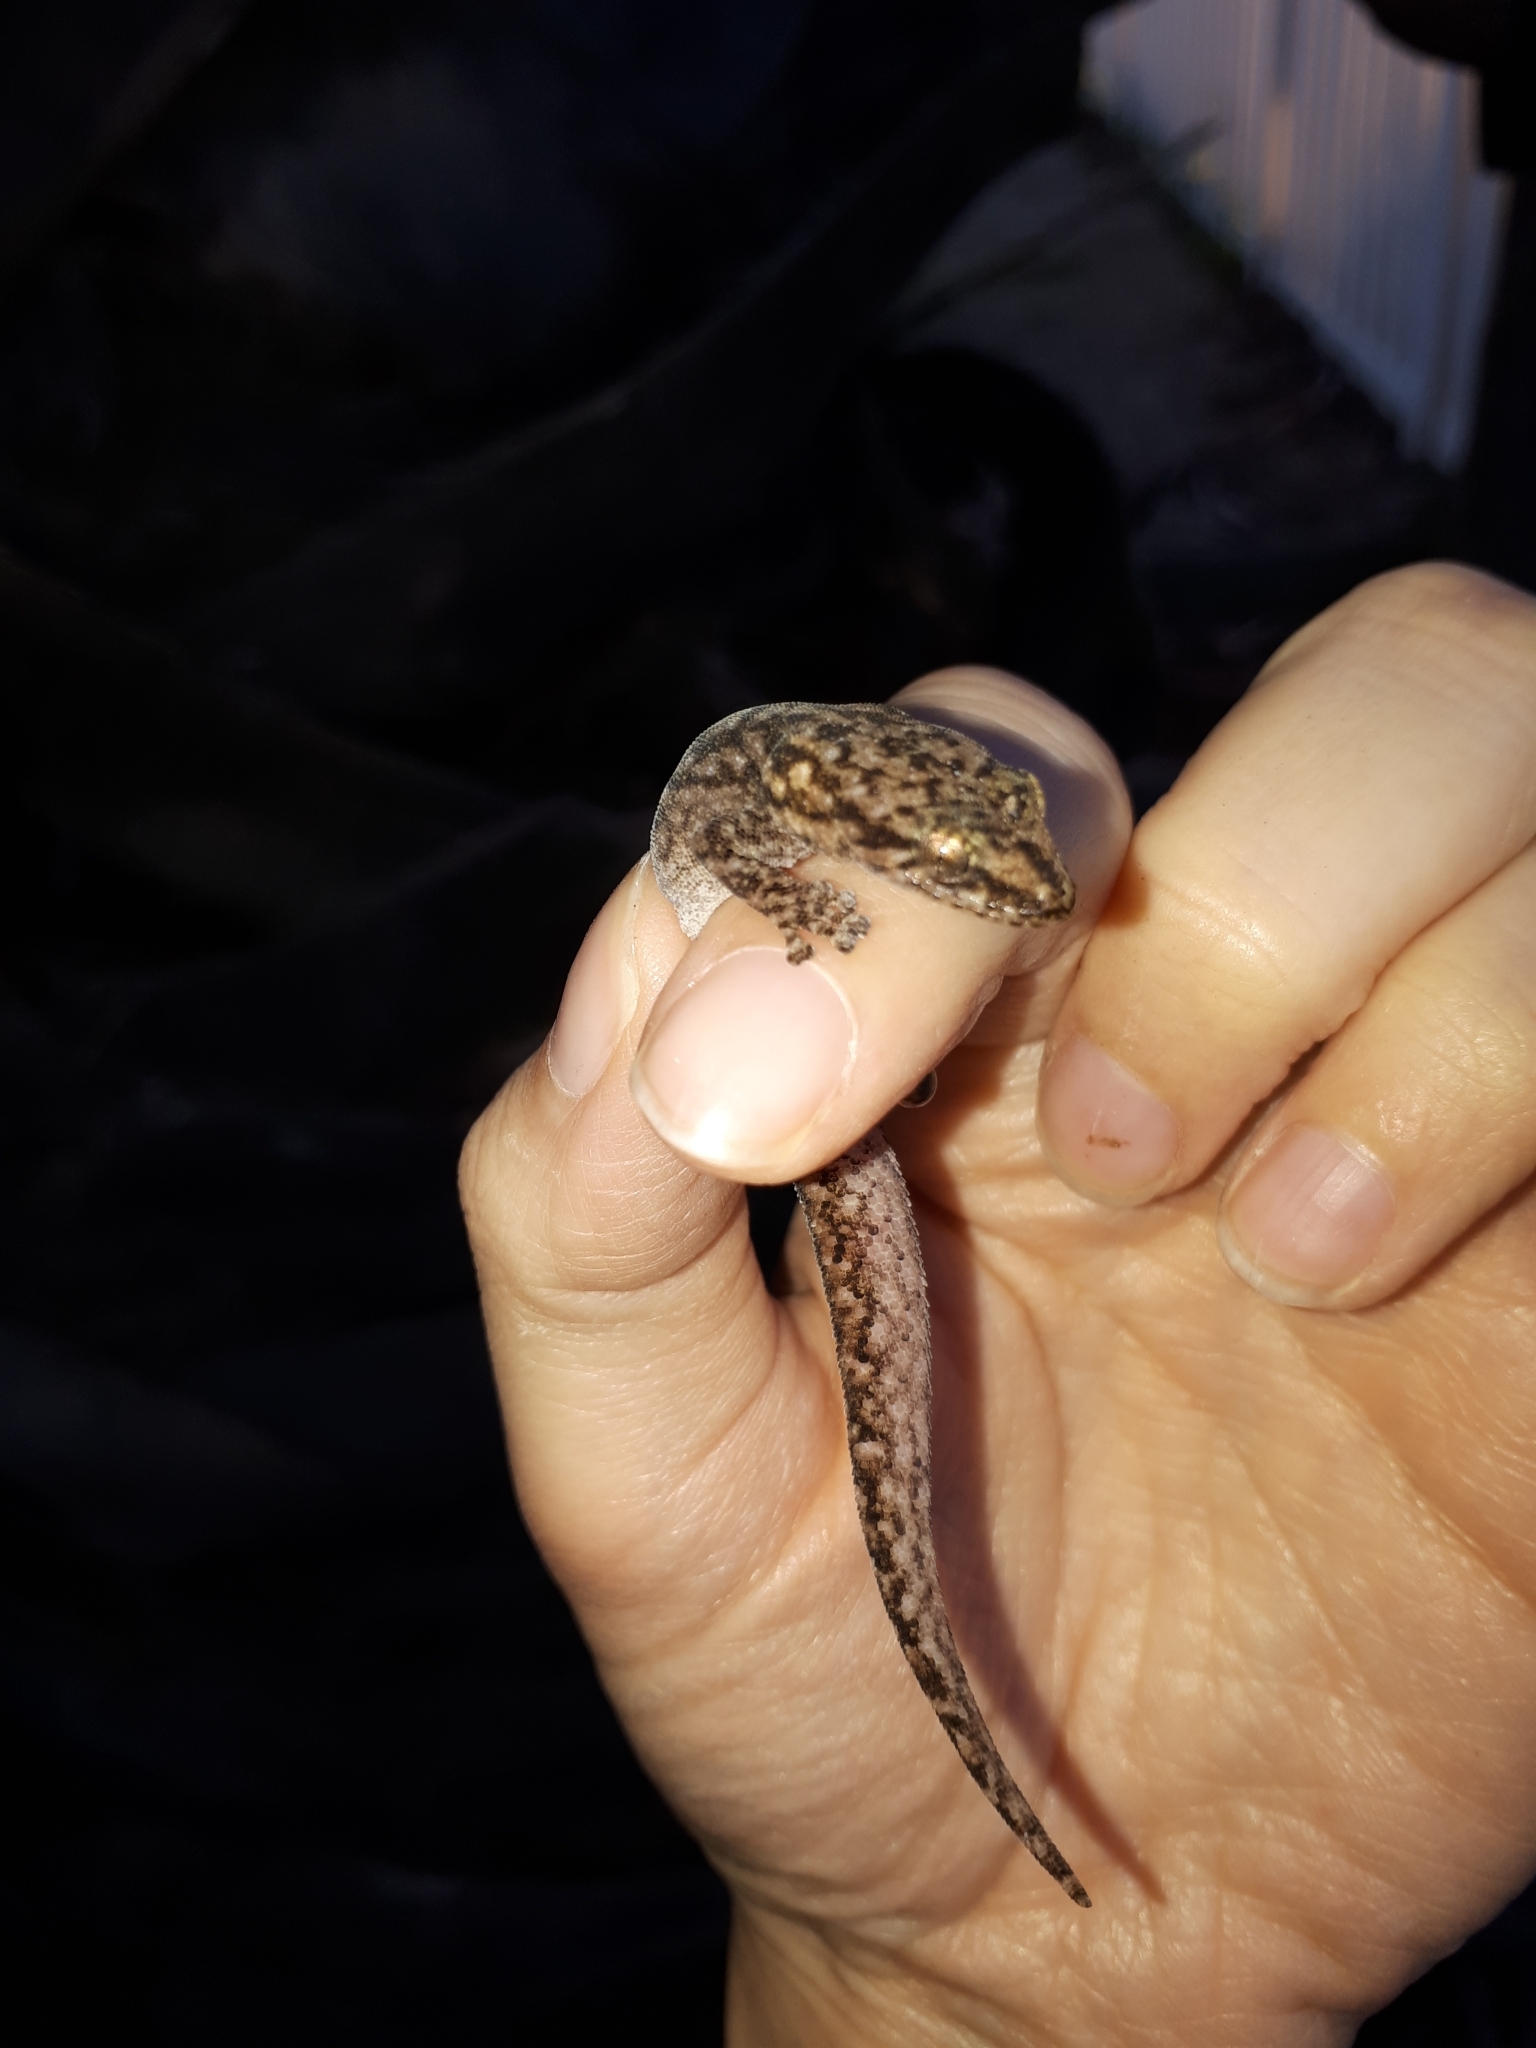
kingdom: Animalia
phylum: Chordata
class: Squamata
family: Gekkonidae
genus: Afrogecko
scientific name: Afrogecko porphyreus
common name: Marbled leaf-toed gecko
